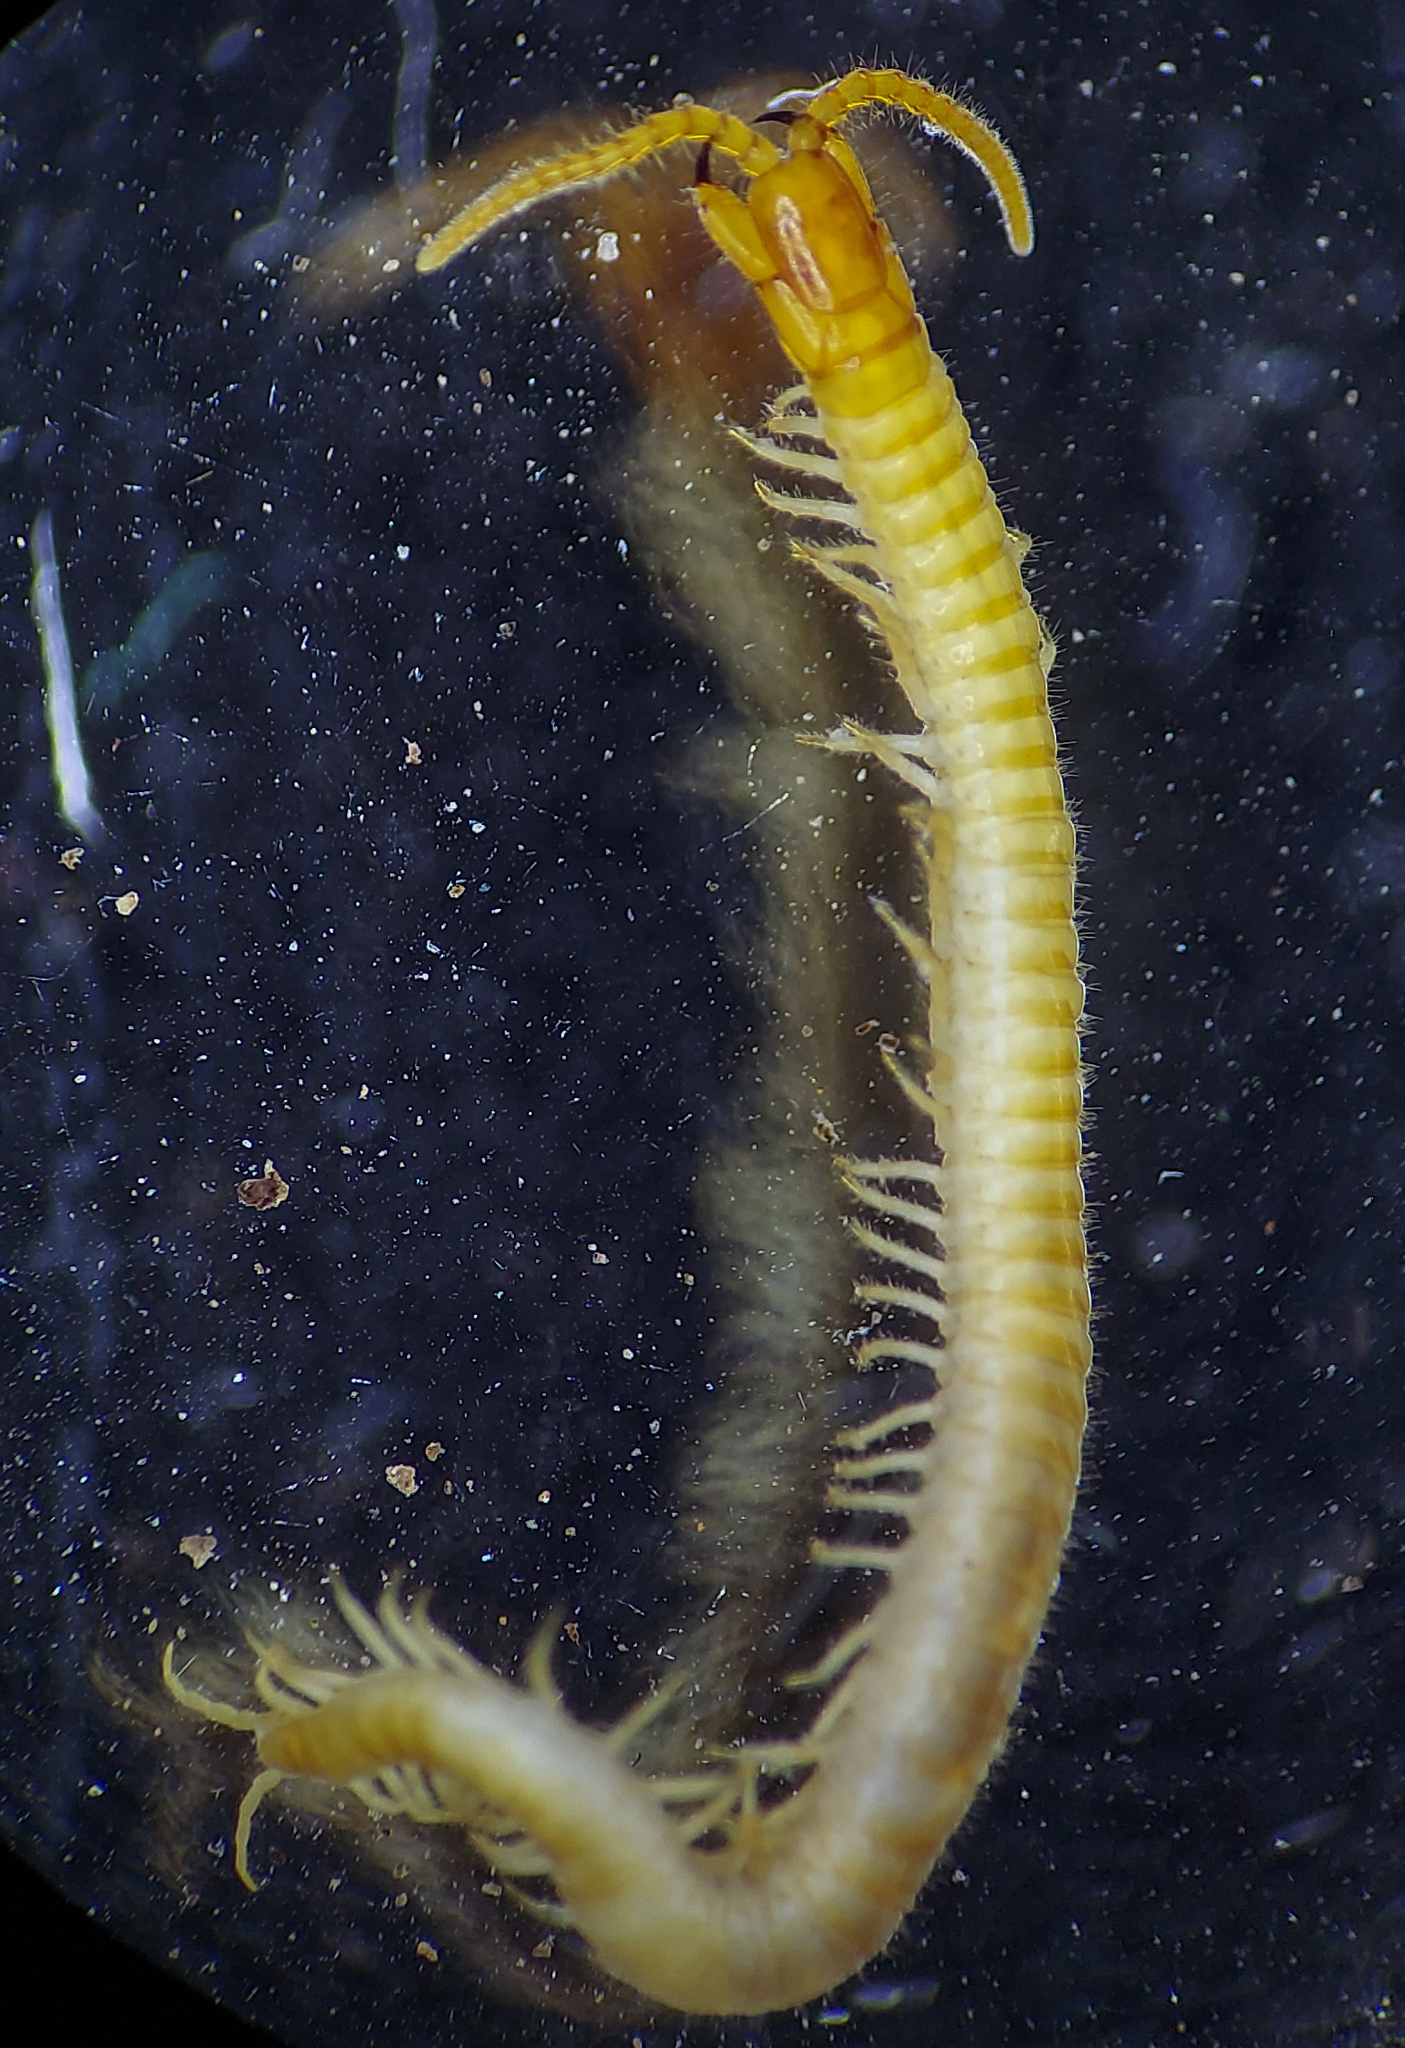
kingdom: Animalia
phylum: Arthropoda
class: Chilopoda
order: Geophilomorpha
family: Geophilidae
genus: Arctogeophilus
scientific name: Arctogeophilus umbraticus
